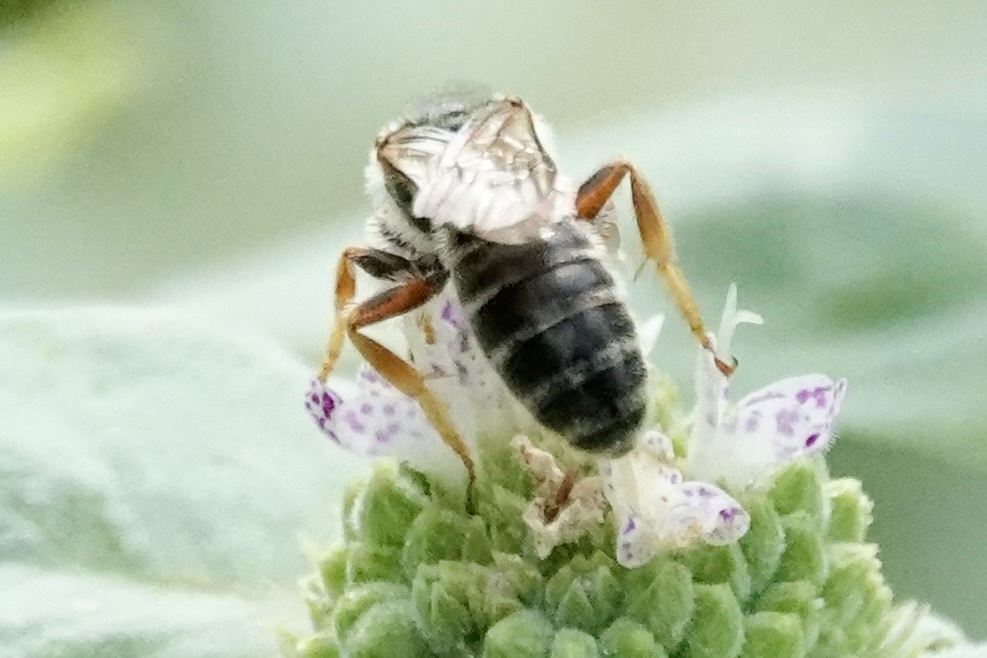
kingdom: Animalia
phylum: Arthropoda
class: Insecta
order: Hymenoptera
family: Halictidae
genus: Halictus
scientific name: Halictus
